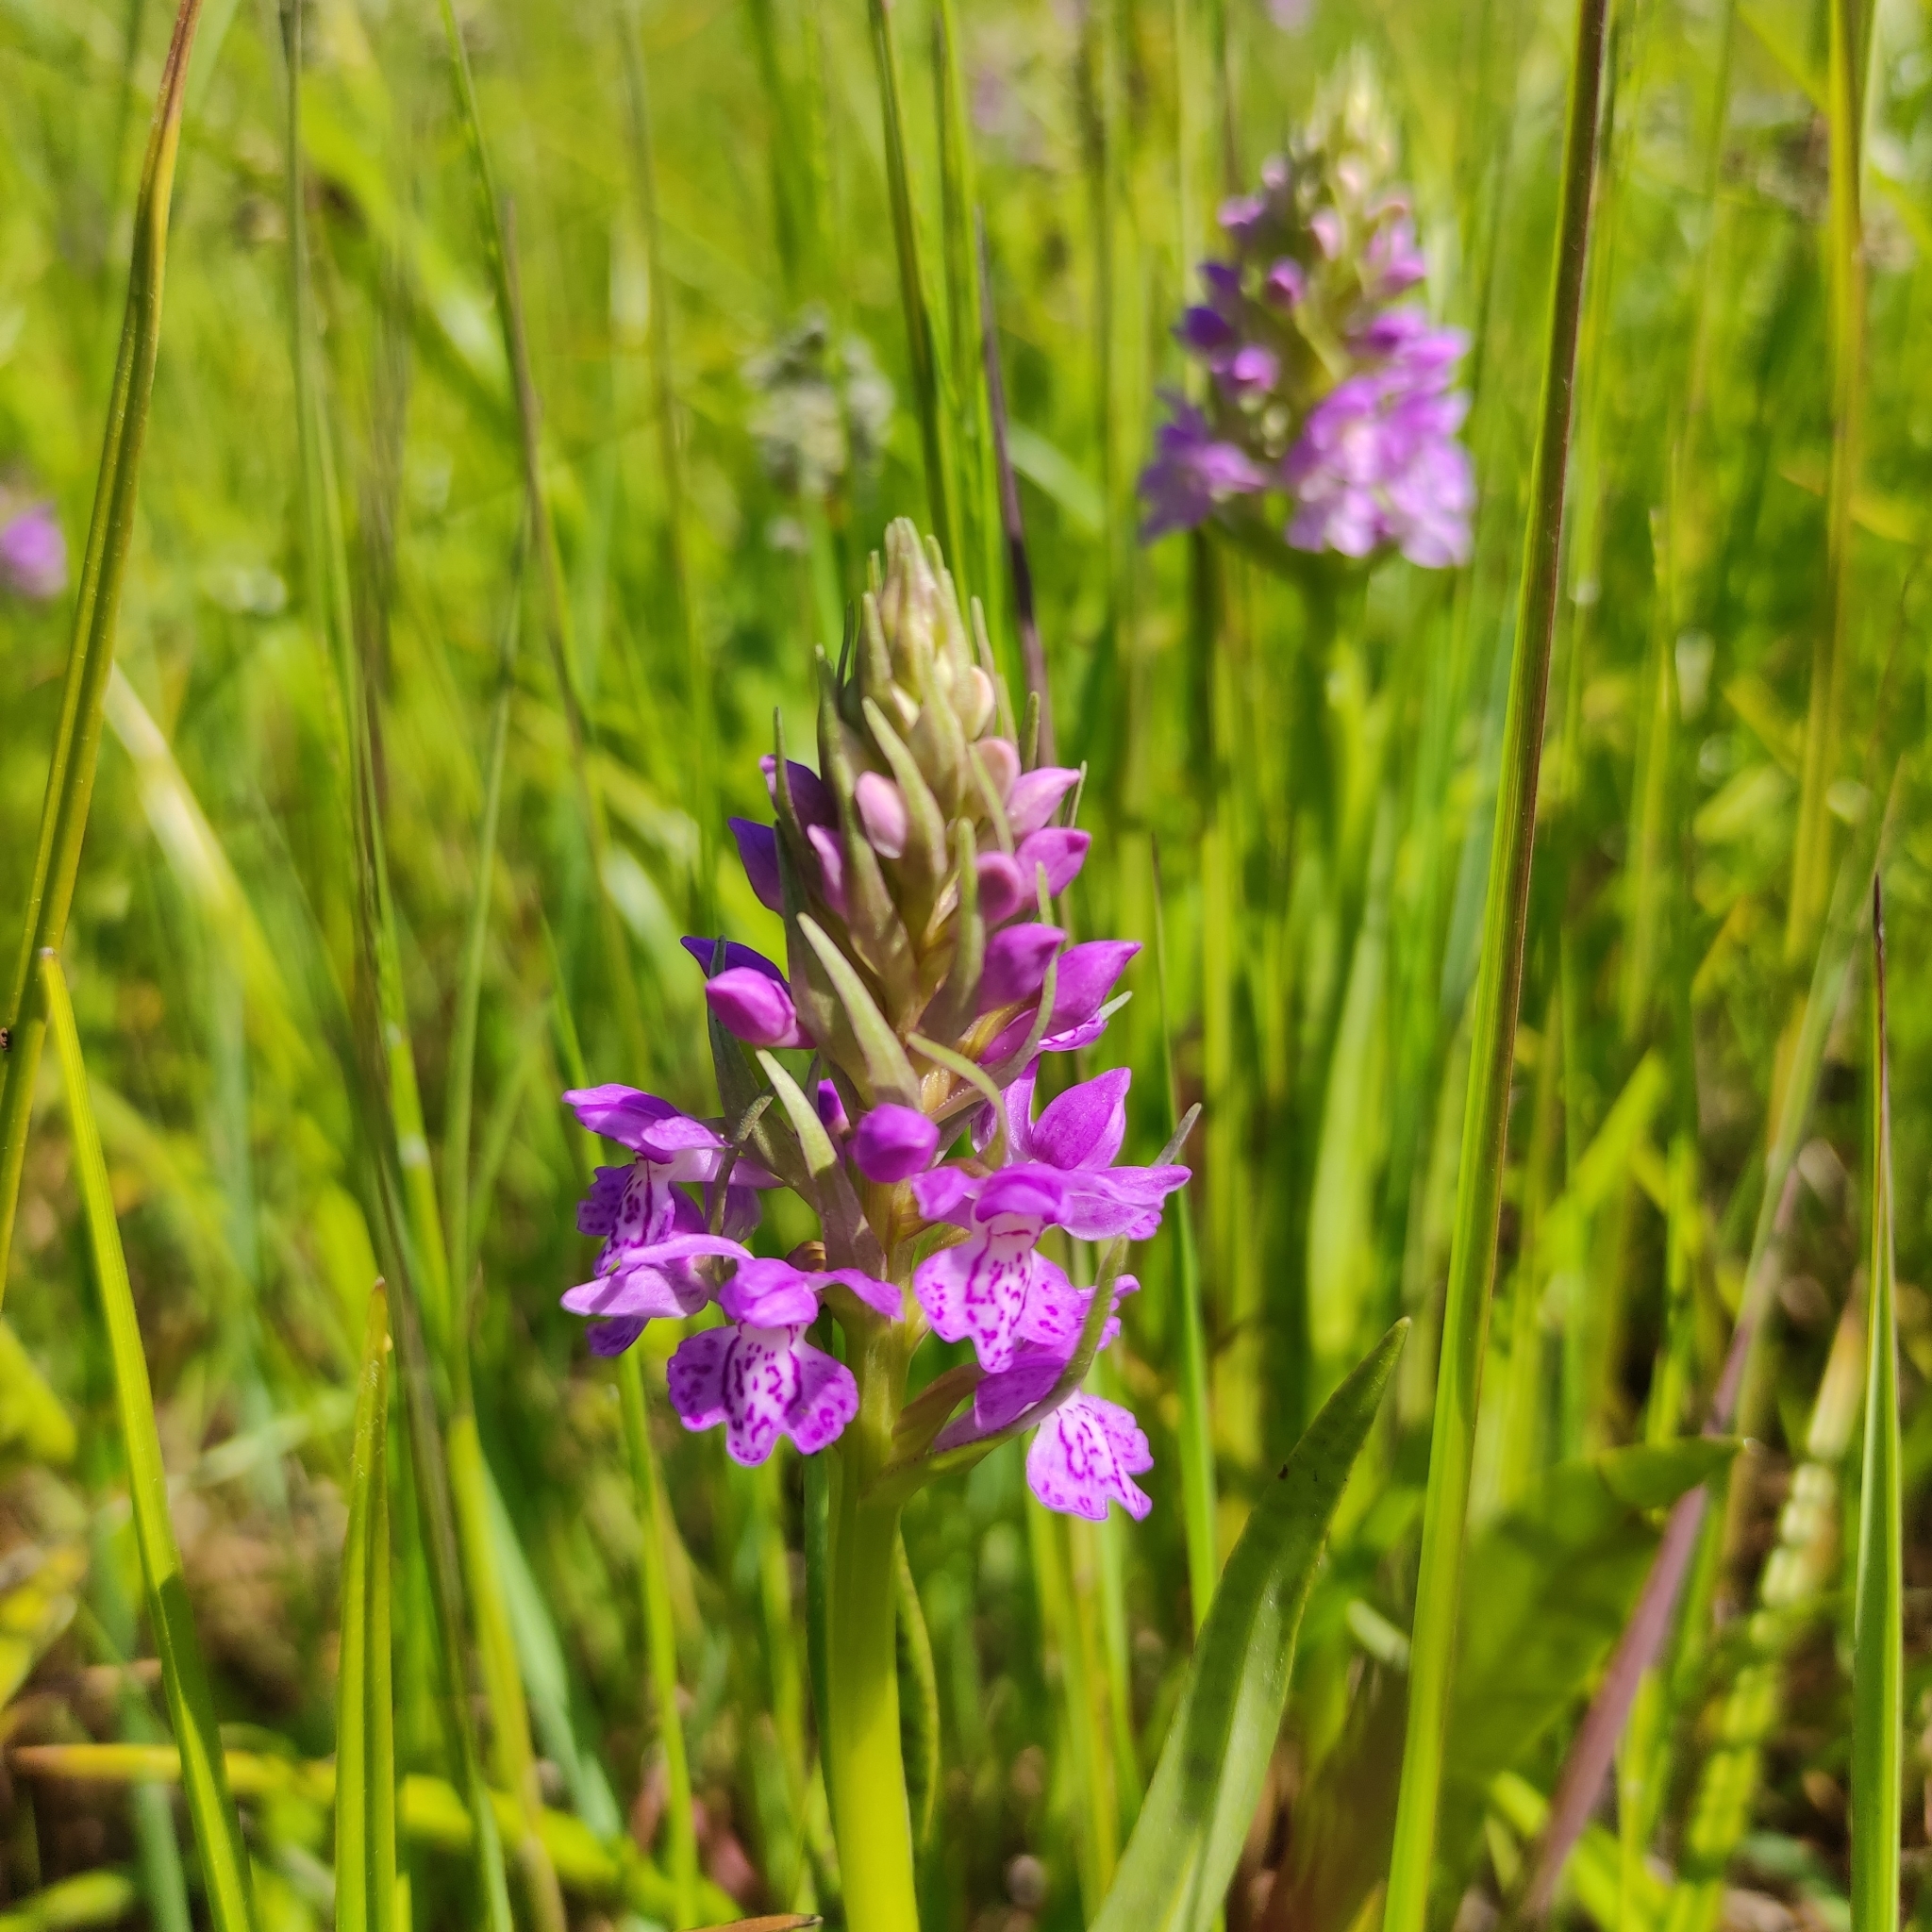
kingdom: Plantae
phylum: Tracheophyta
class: Liliopsida
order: Asparagales
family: Orchidaceae
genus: Dactylorhiza
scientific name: Dactylorhiza majalis
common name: Marsh orchid
